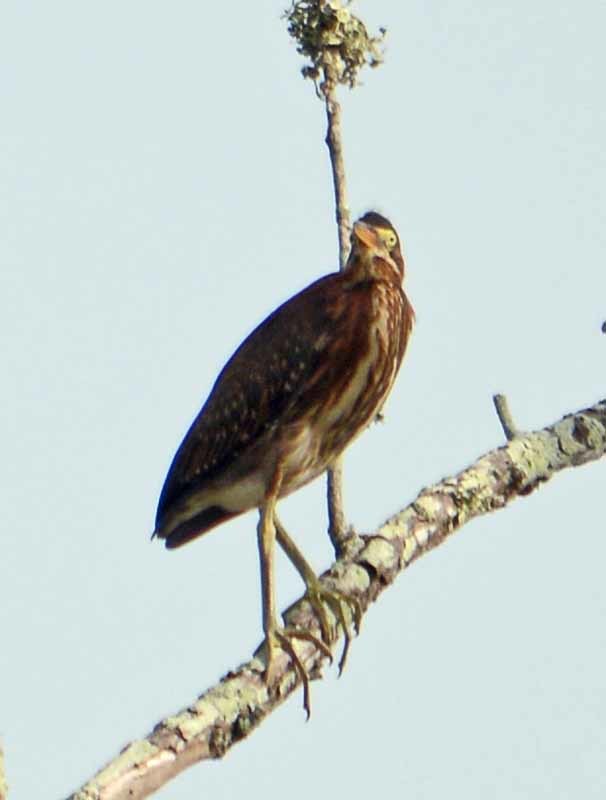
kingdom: Animalia
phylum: Chordata
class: Aves
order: Pelecaniformes
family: Ardeidae
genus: Butorides
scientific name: Butorides virescens
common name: Green heron
